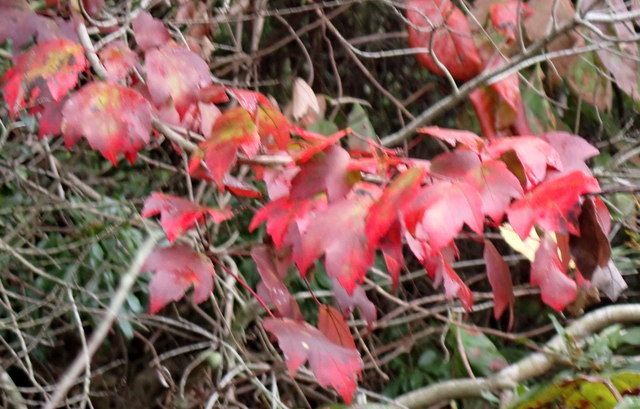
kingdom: Plantae
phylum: Tracheophyta
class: Magnoliopsida
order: Sapindales
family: Sapindaceae
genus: Acer
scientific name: Acer rubrum
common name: Red maple
